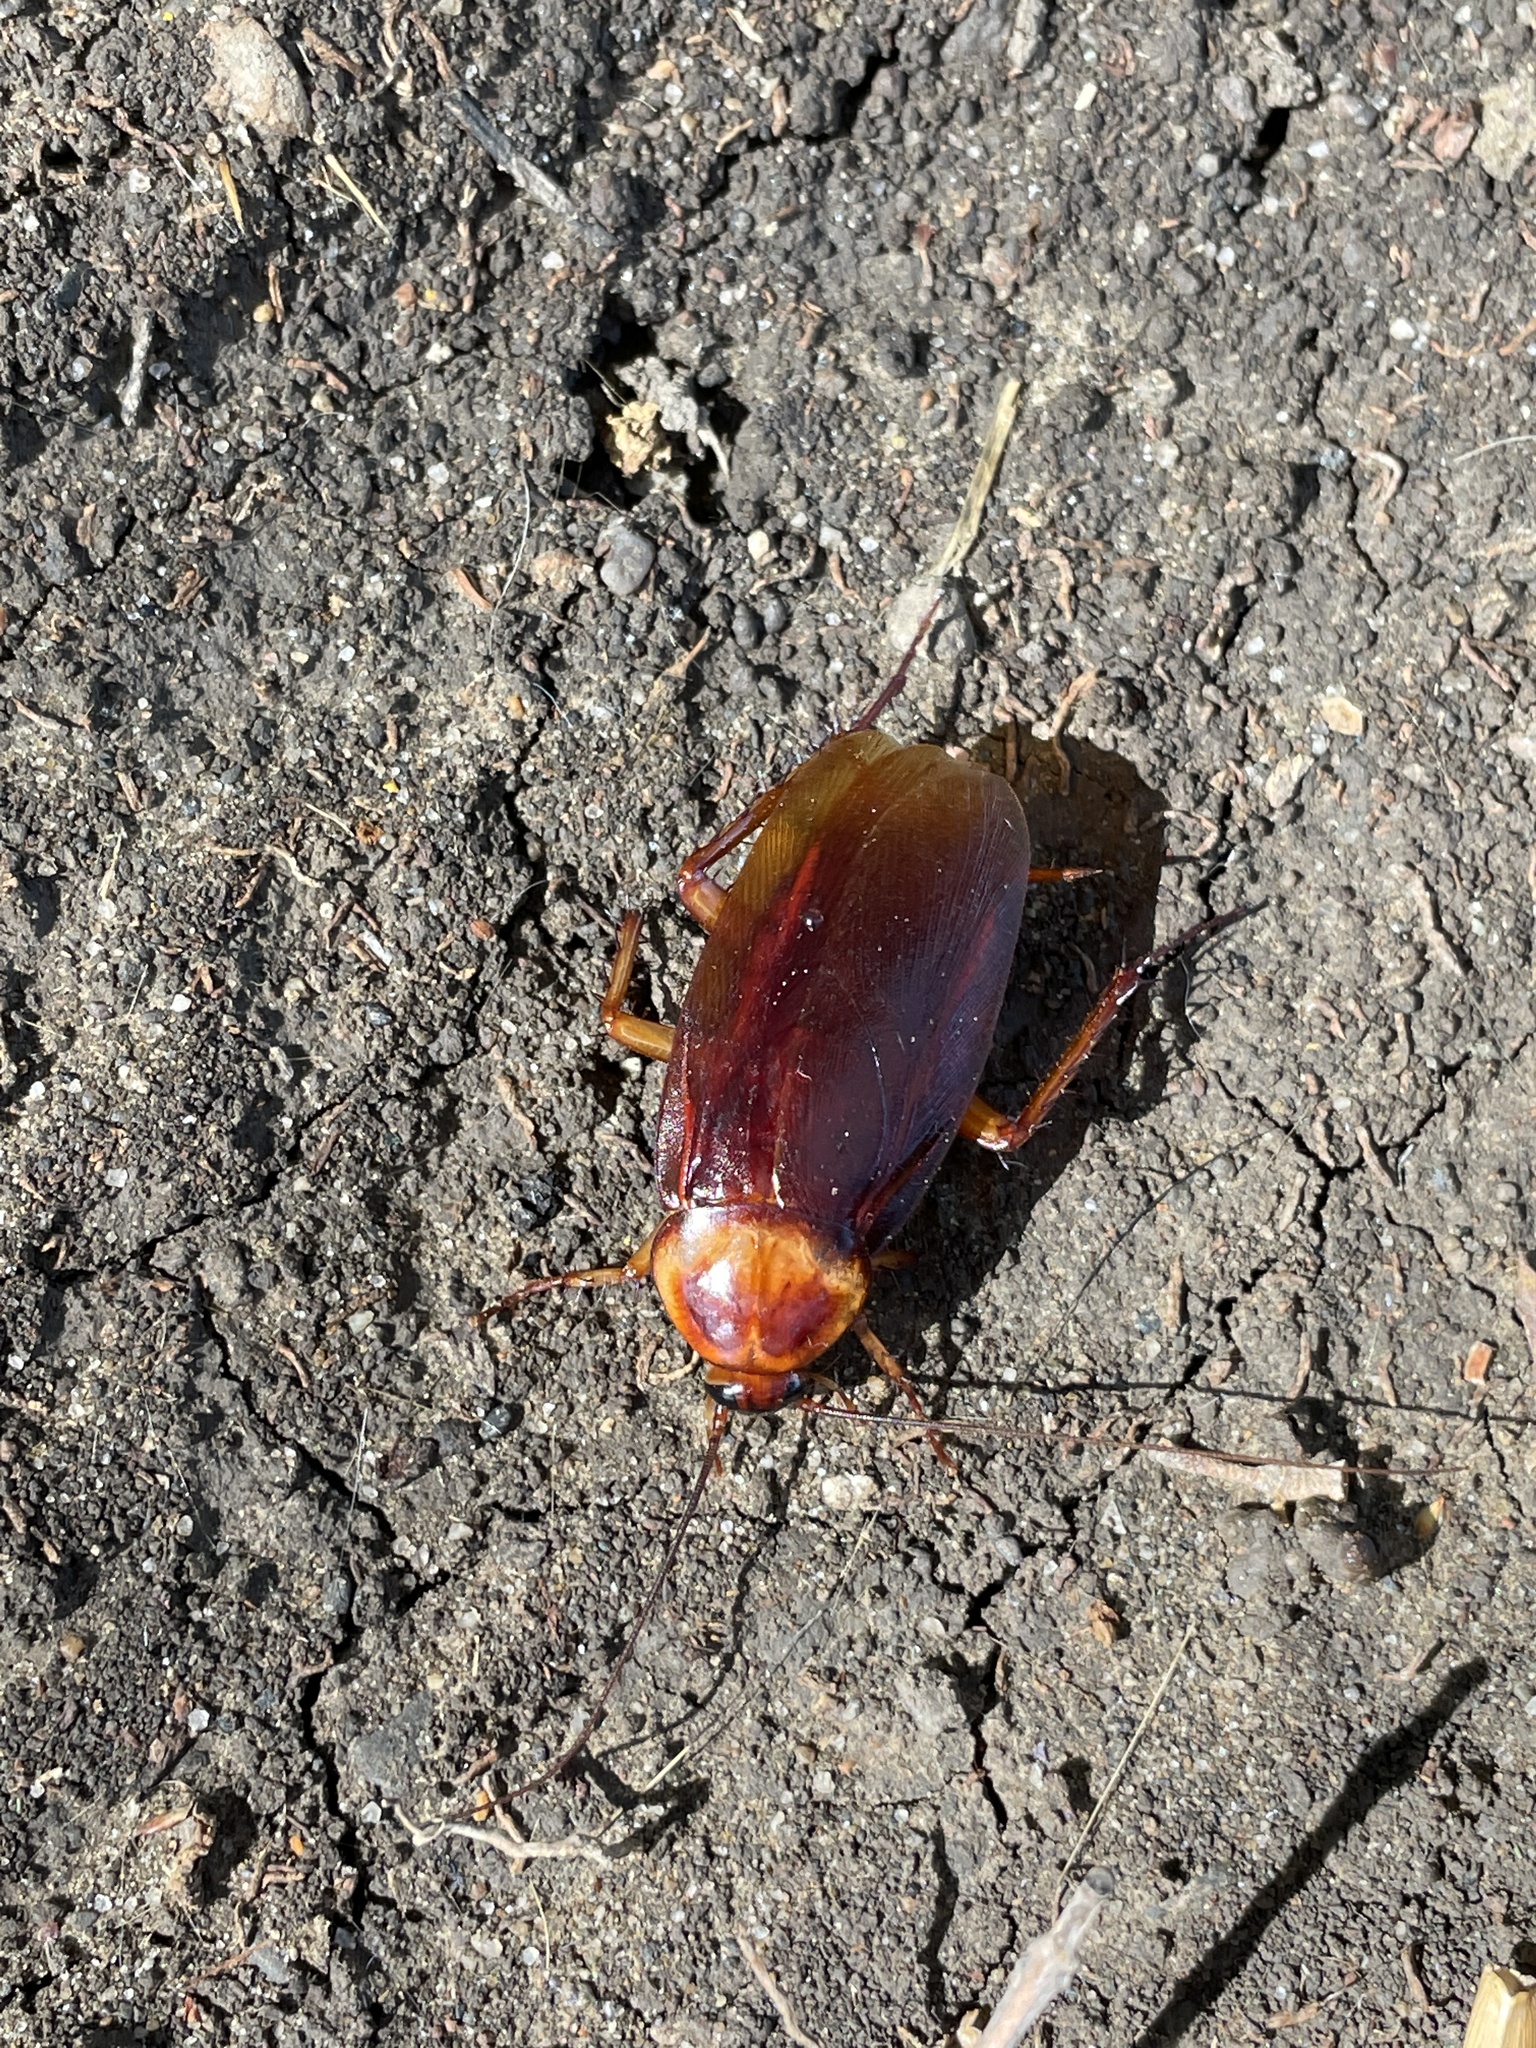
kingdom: Animalia
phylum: Arthropoda
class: Insecta
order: Blattodea
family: Blattidae
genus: Periplaneta
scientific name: Periplaneta americana
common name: American cockroach
